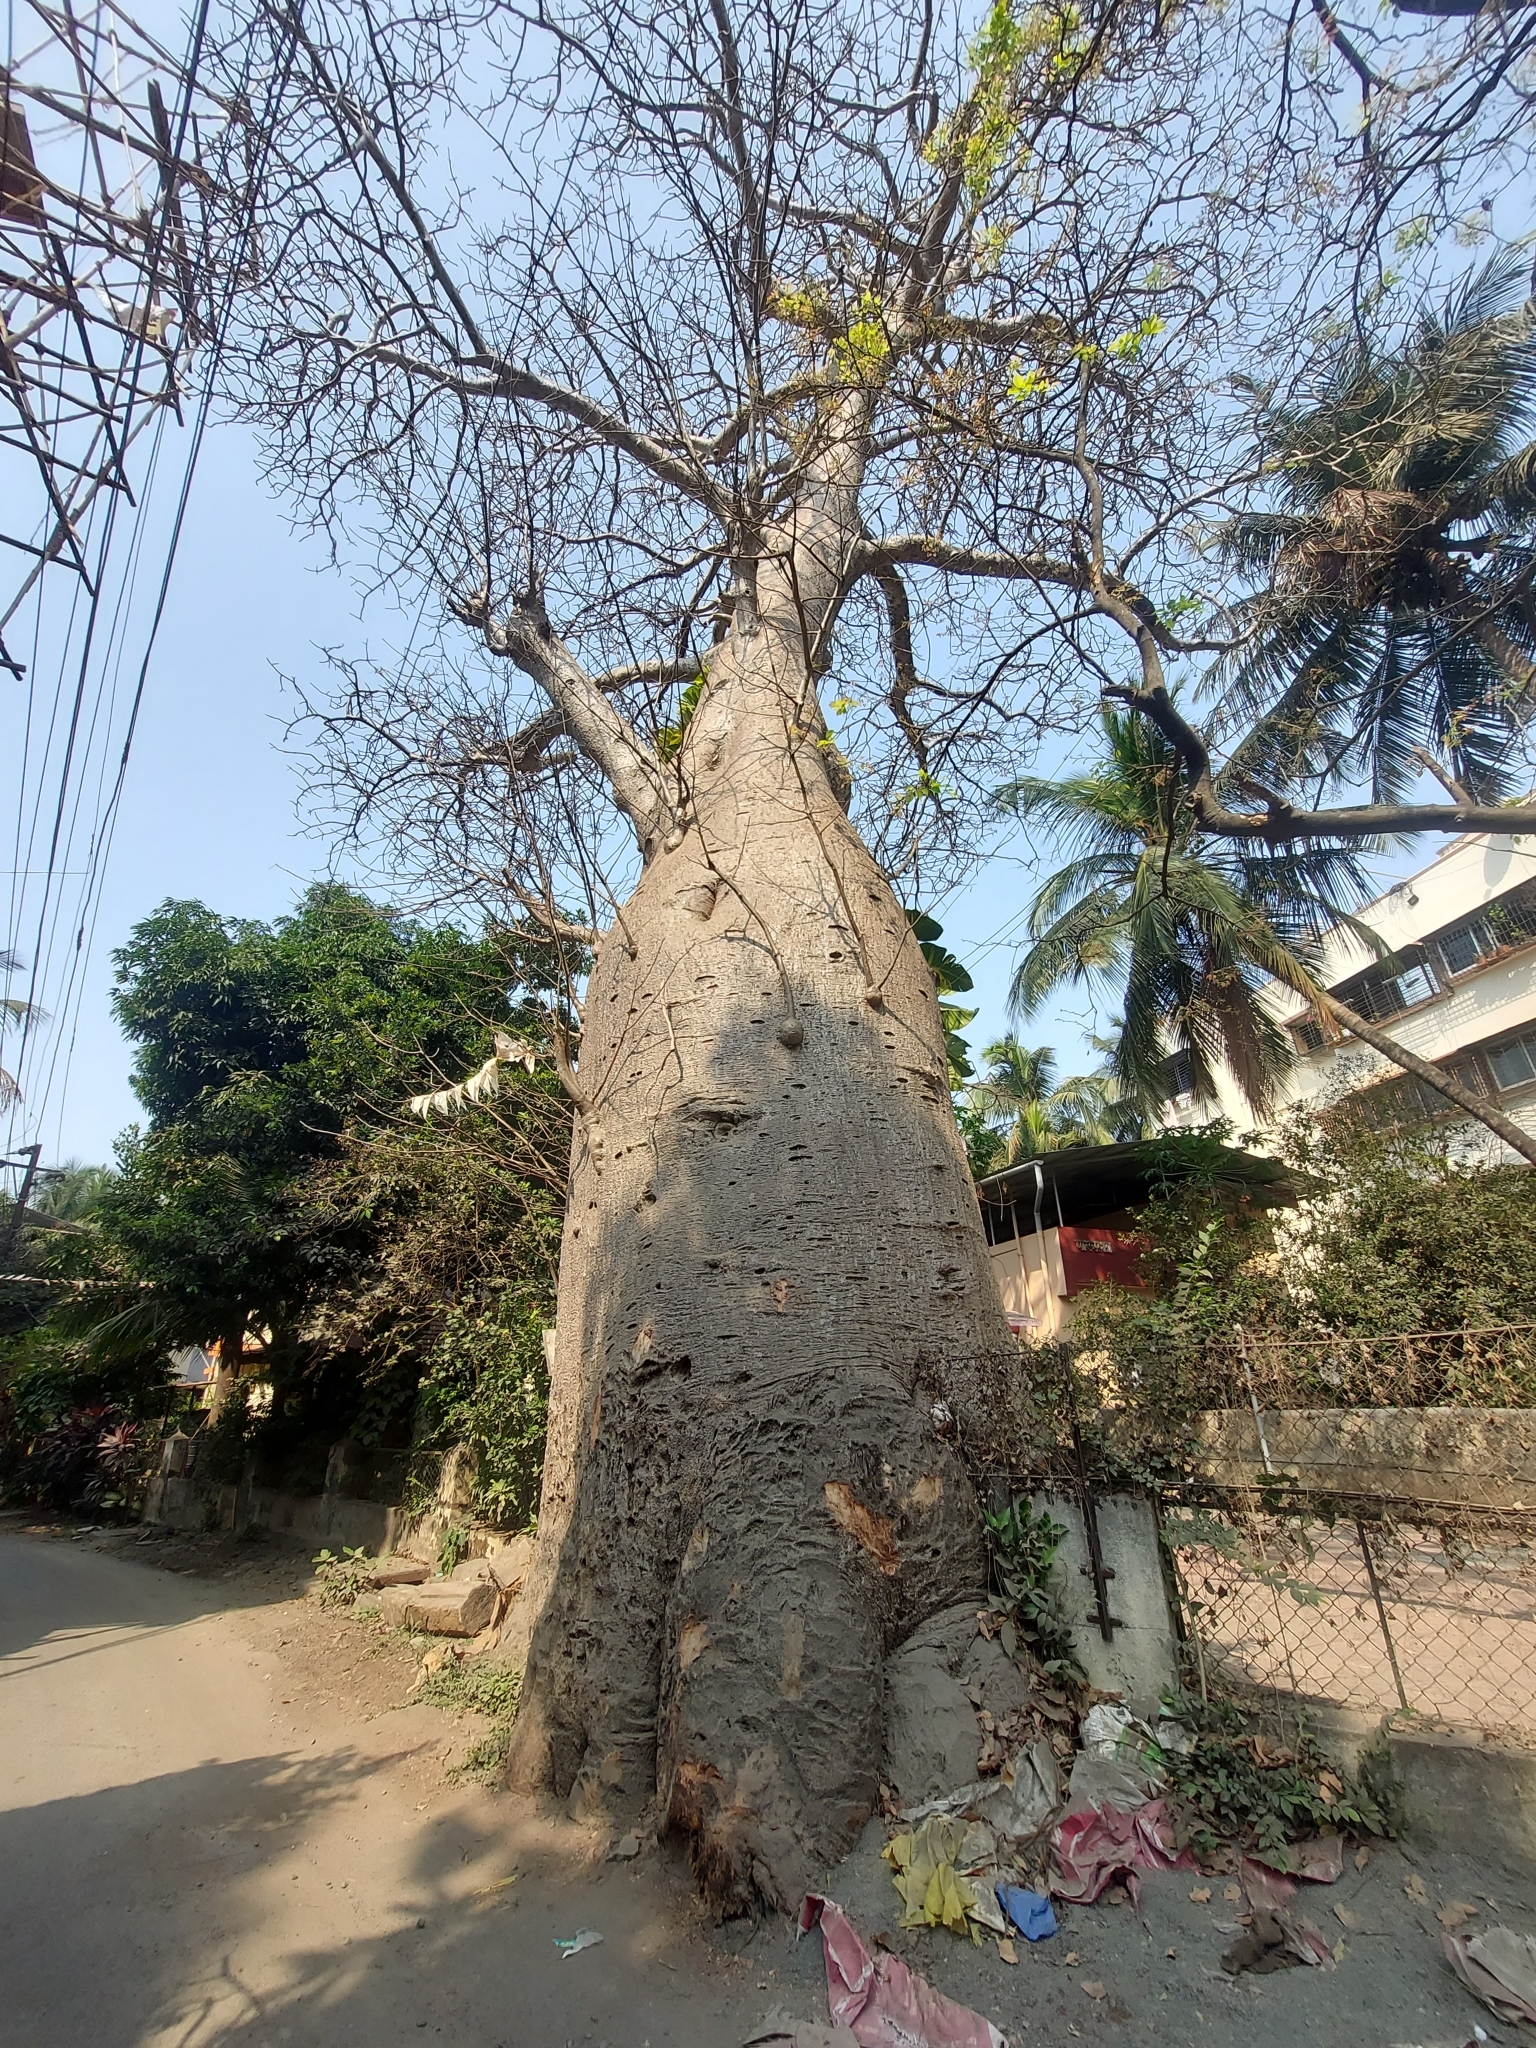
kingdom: Plantae
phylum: Tracheophyta
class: Magnoliopsida
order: Malvales
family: Malvaceae
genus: Adansonia
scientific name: Adansonia digitata
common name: Dead-rat-tree
